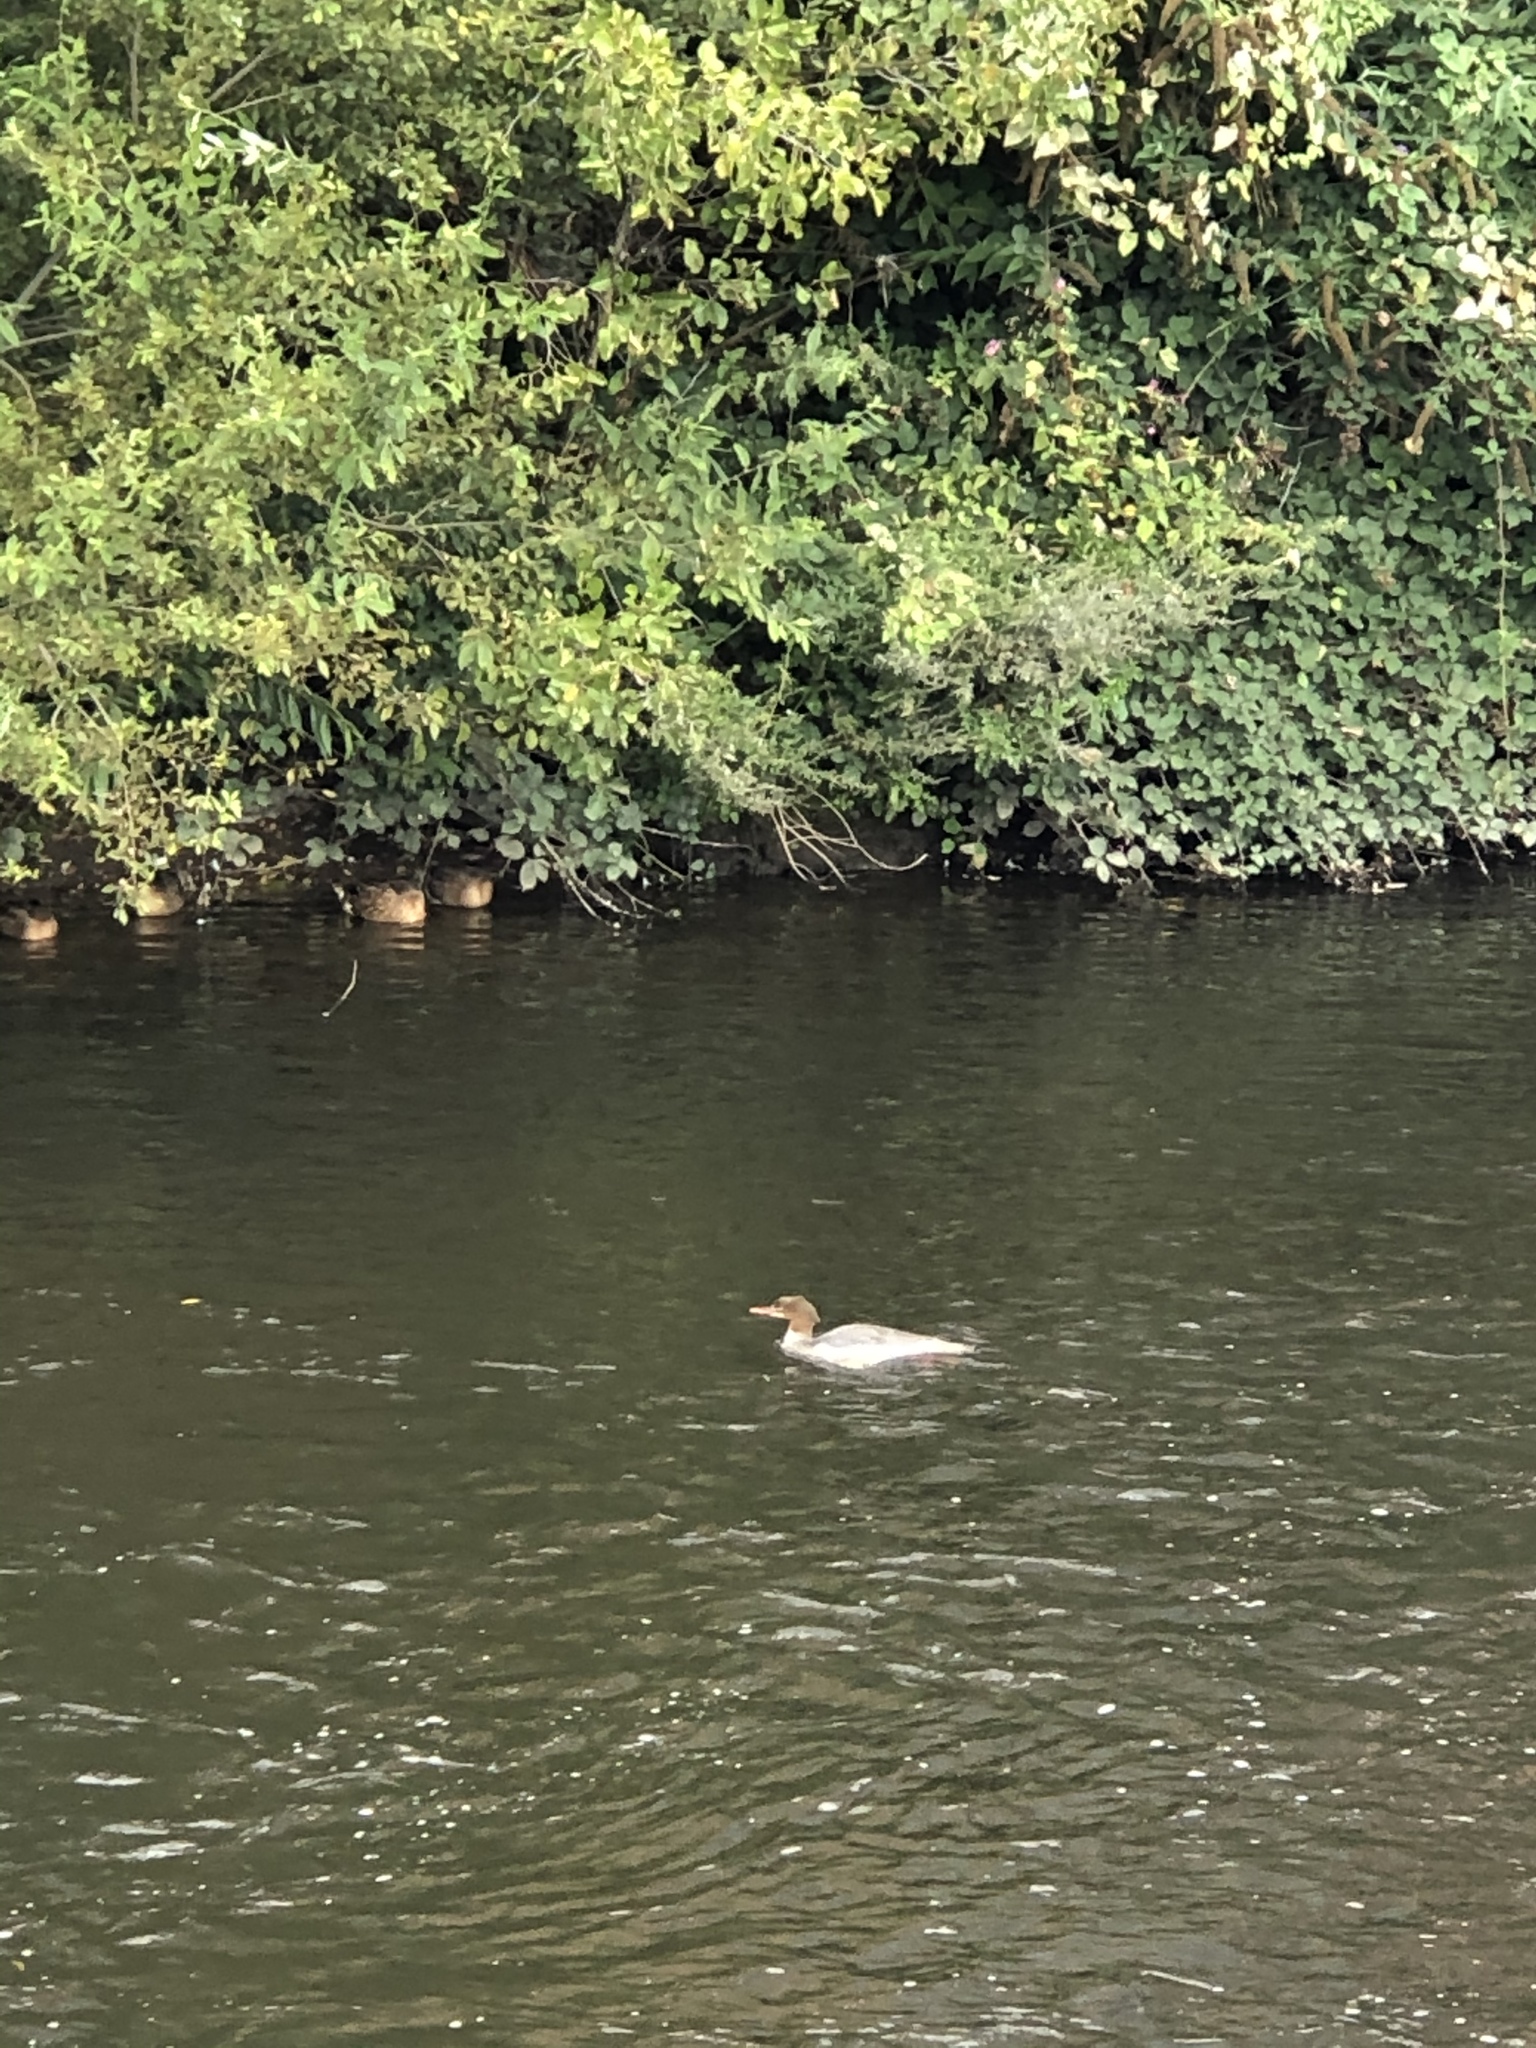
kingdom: Animalia
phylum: Chordata
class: Aves
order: Anseriformes
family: Anatidae
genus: Mergus
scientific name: Mergus merganser
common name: Common merganser
